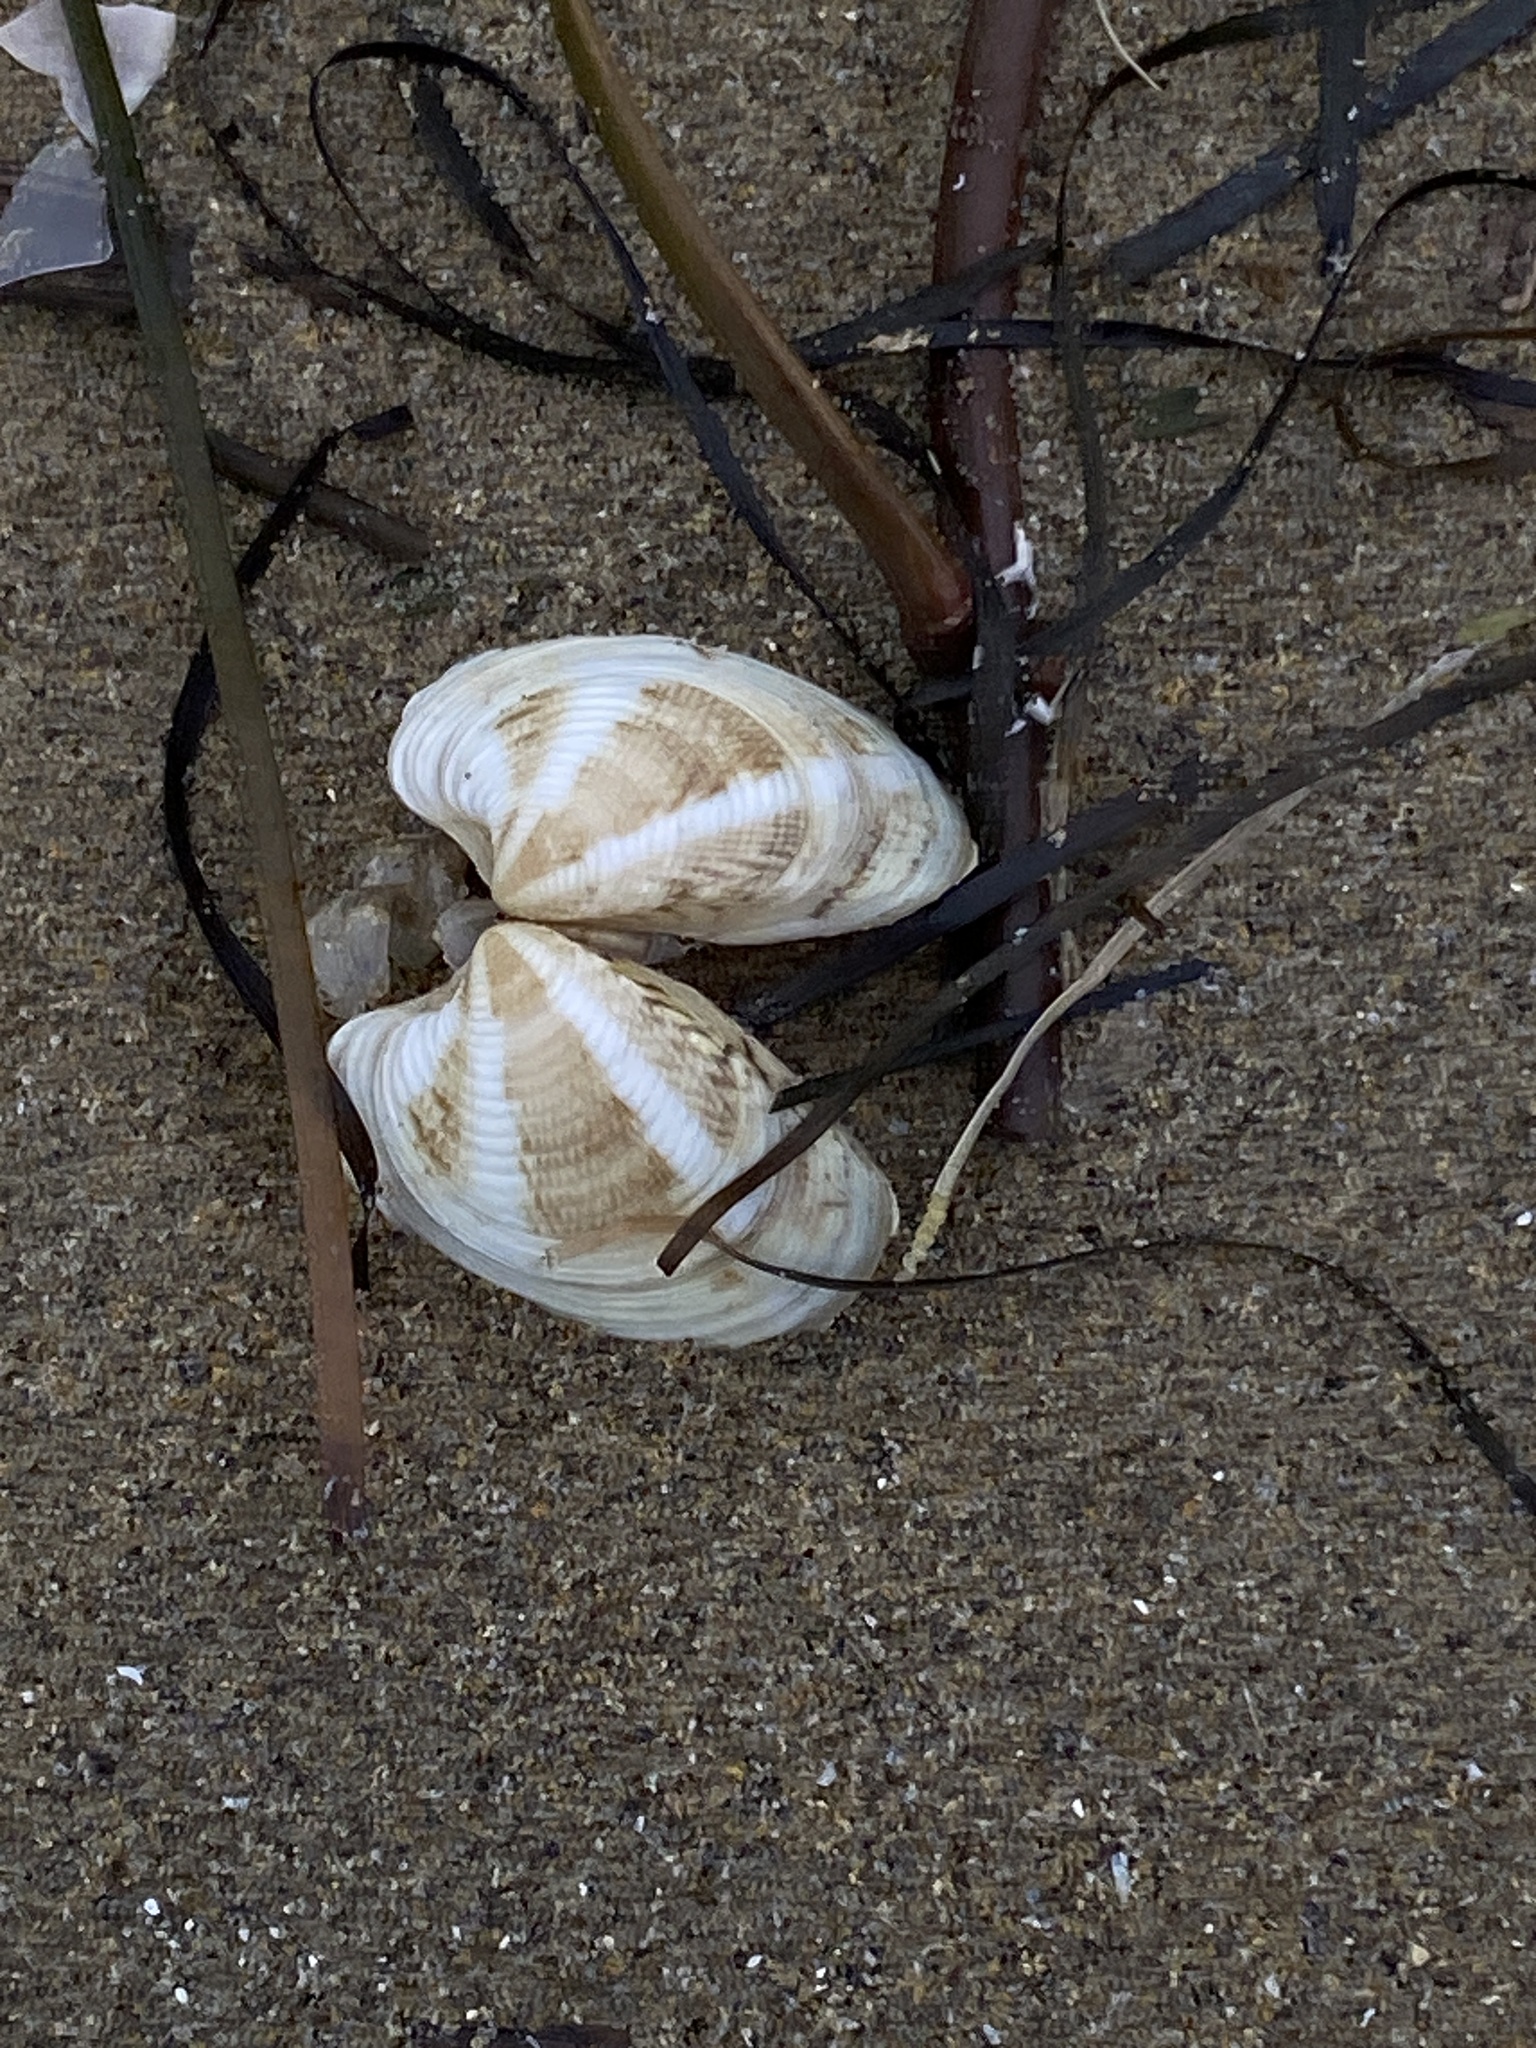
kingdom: Animalia
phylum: Mollusca
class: Bivalvia
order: Venerida
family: Veneridae
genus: Chamelea
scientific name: Chamelea gallina
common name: Chicken venus
